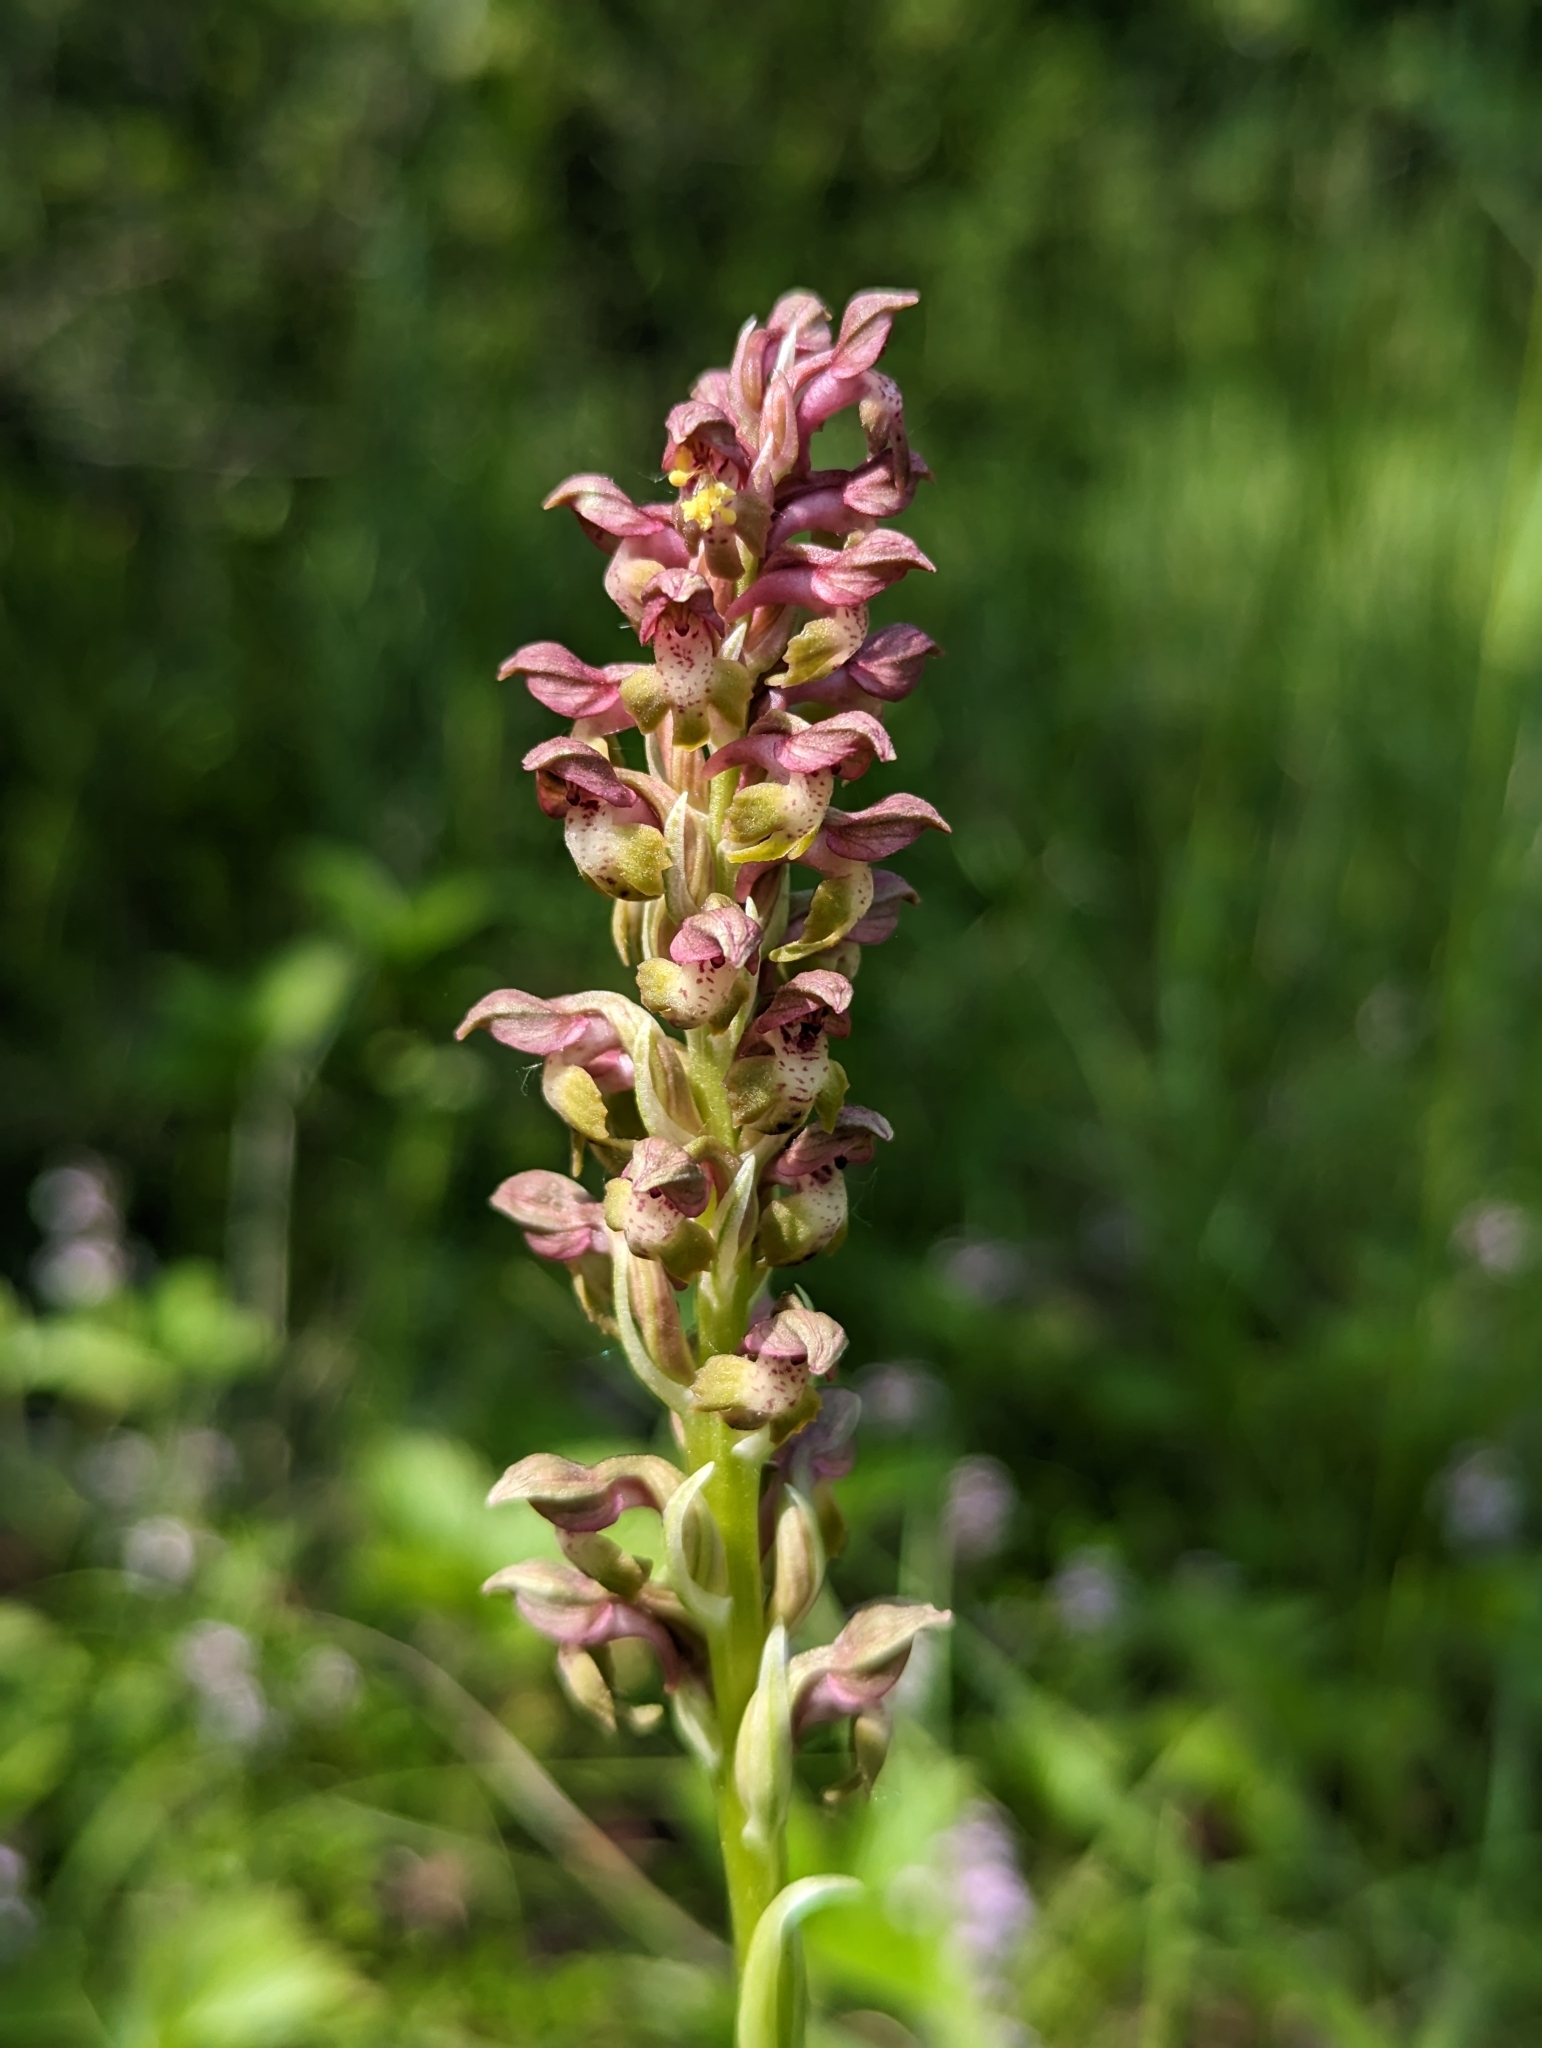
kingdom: Plantae
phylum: Tracheophyta
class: Liliopsida
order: Asparagales
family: Orchidaceae
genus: Anacamptis
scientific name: Anacamptis coriophora
